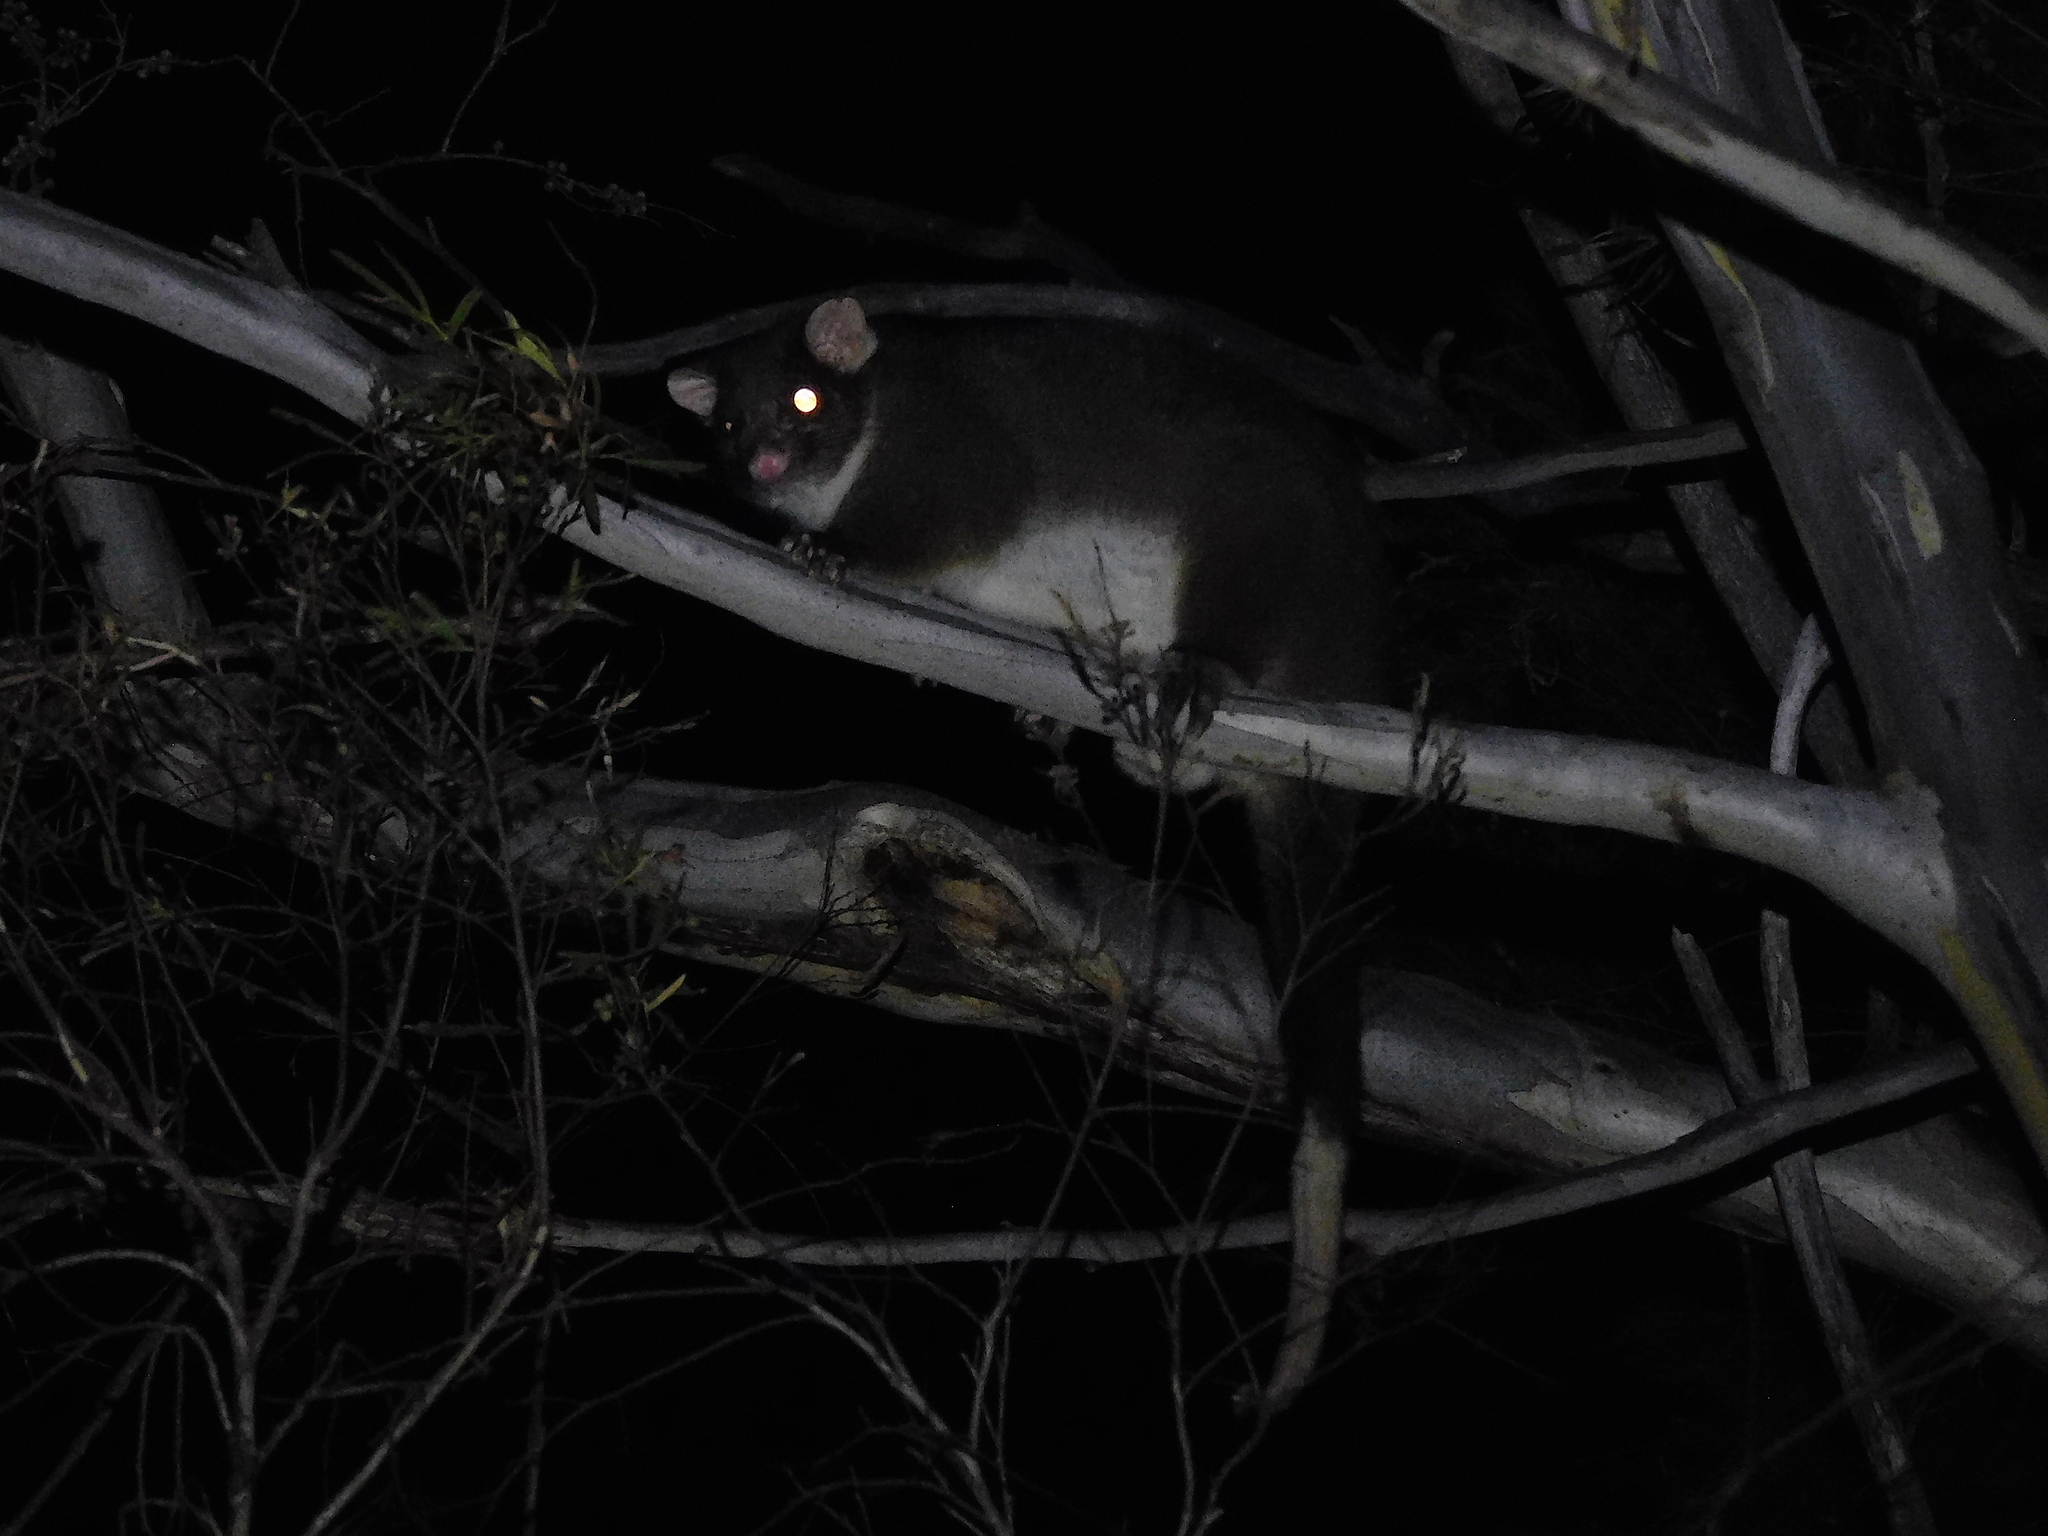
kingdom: Animalia
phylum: Chordata
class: Mammalia
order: Diprotodontia
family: Pseudocheiridae
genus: Pseudocheirus
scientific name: Pseudocheirus peregrinus
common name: Common ringtail possum
